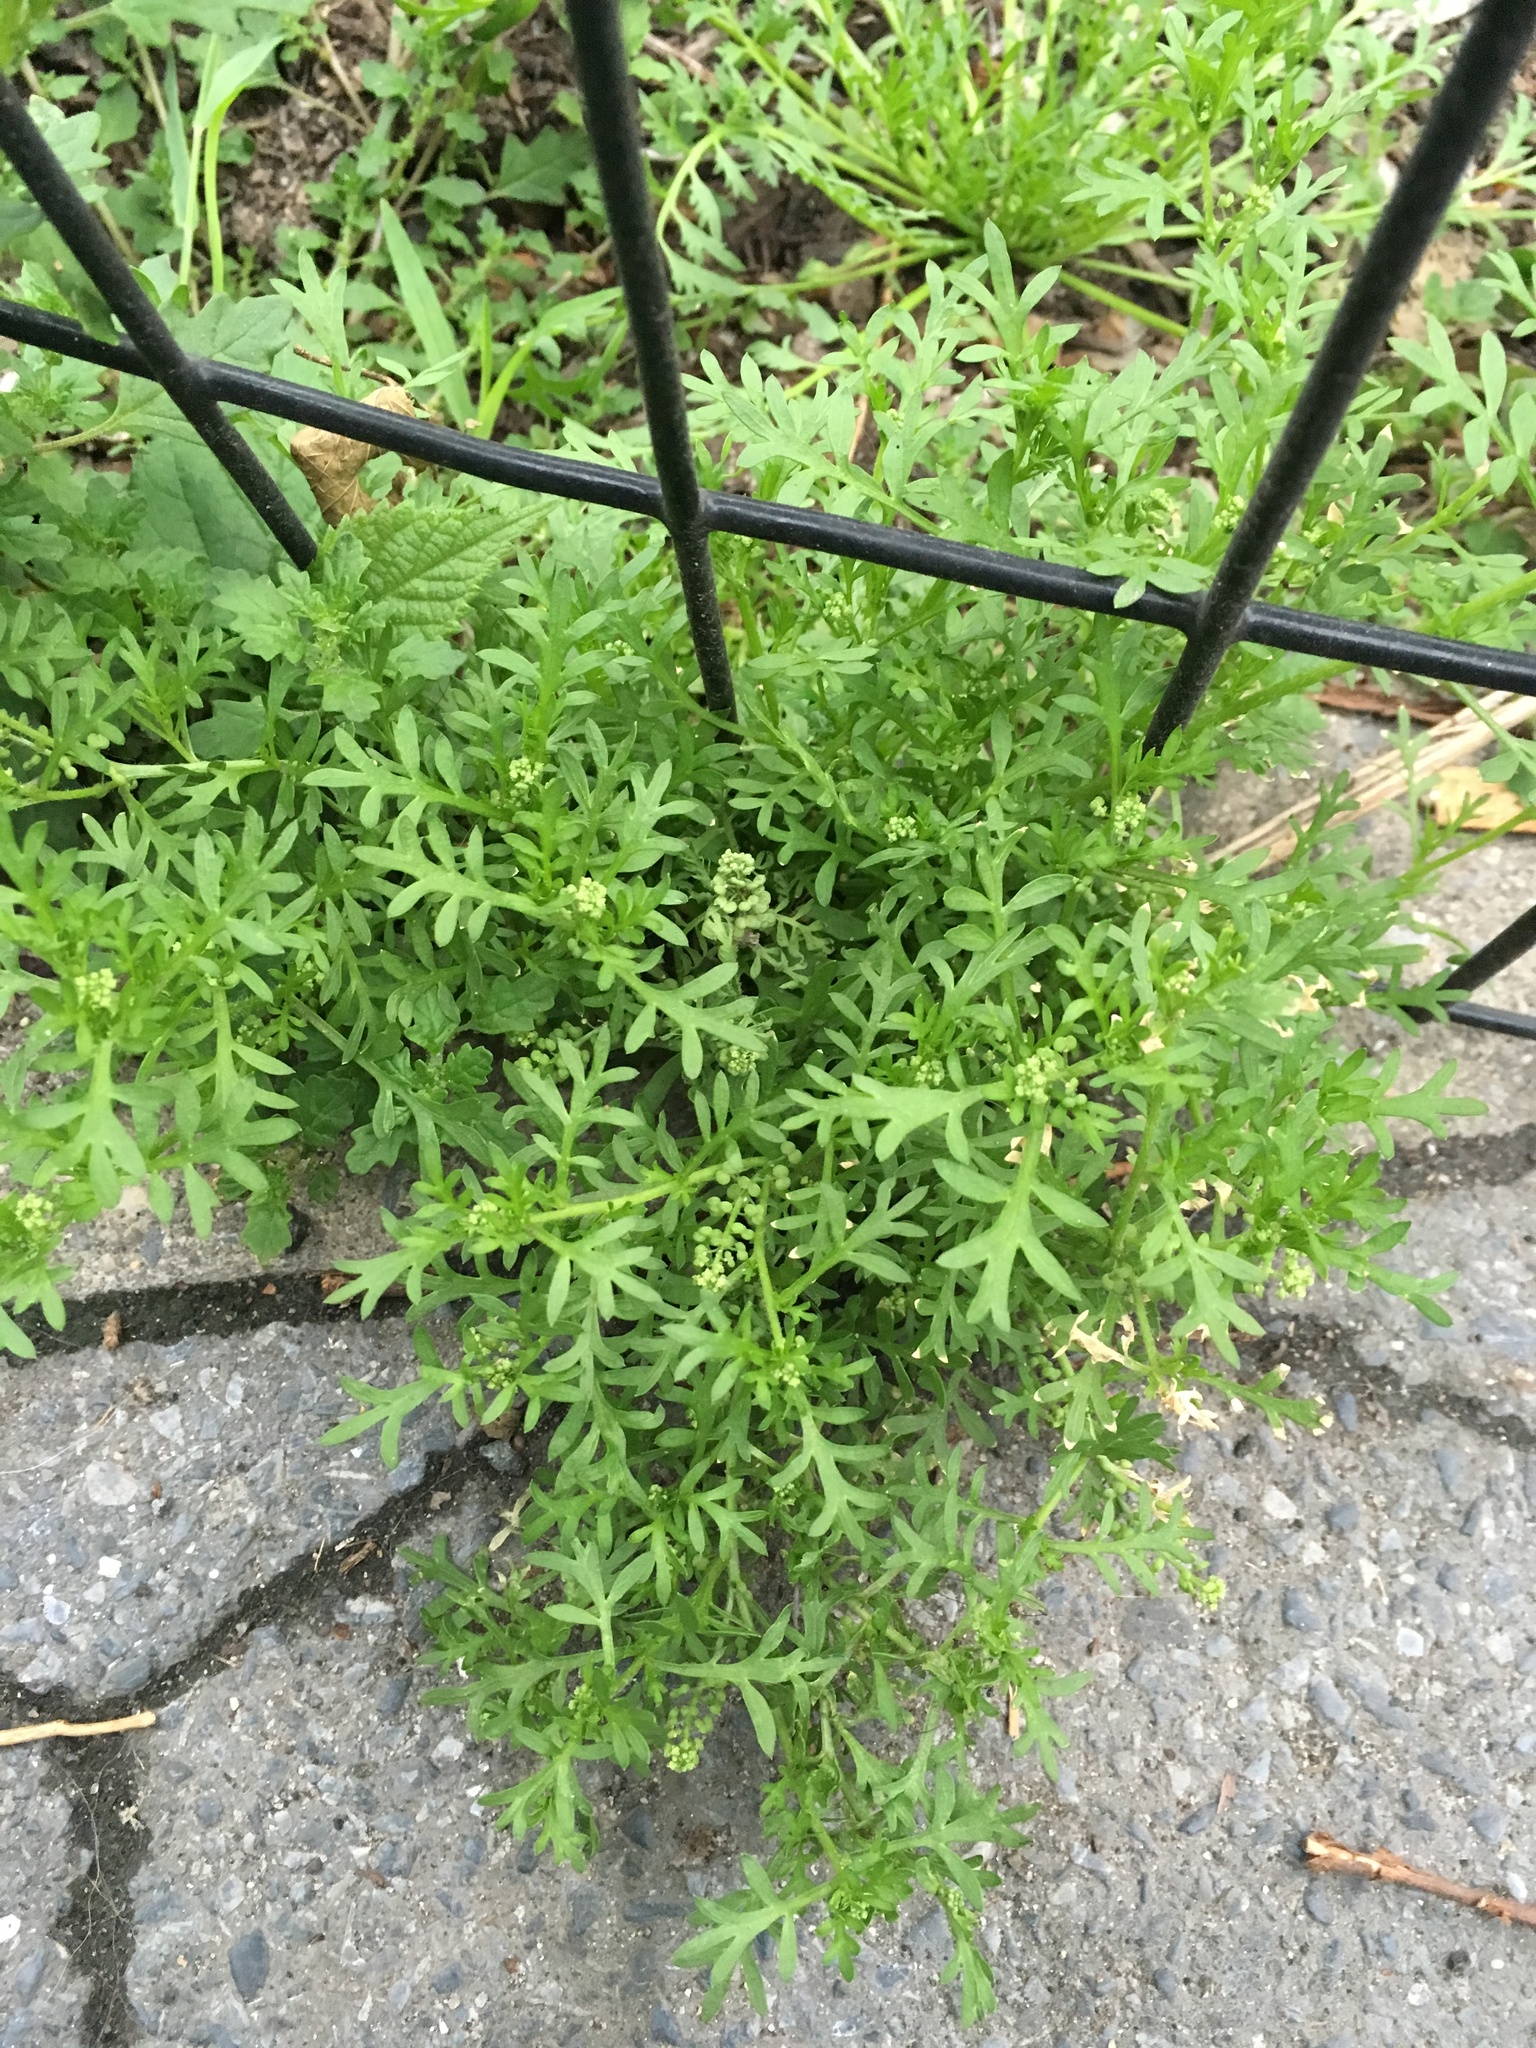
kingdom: Plantae
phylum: Tracheophyta
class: Magnoliopsida
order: Brassicales
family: Brassicaceae
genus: Lepidium
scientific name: Lepidium didymum
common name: Lesser swinecress
